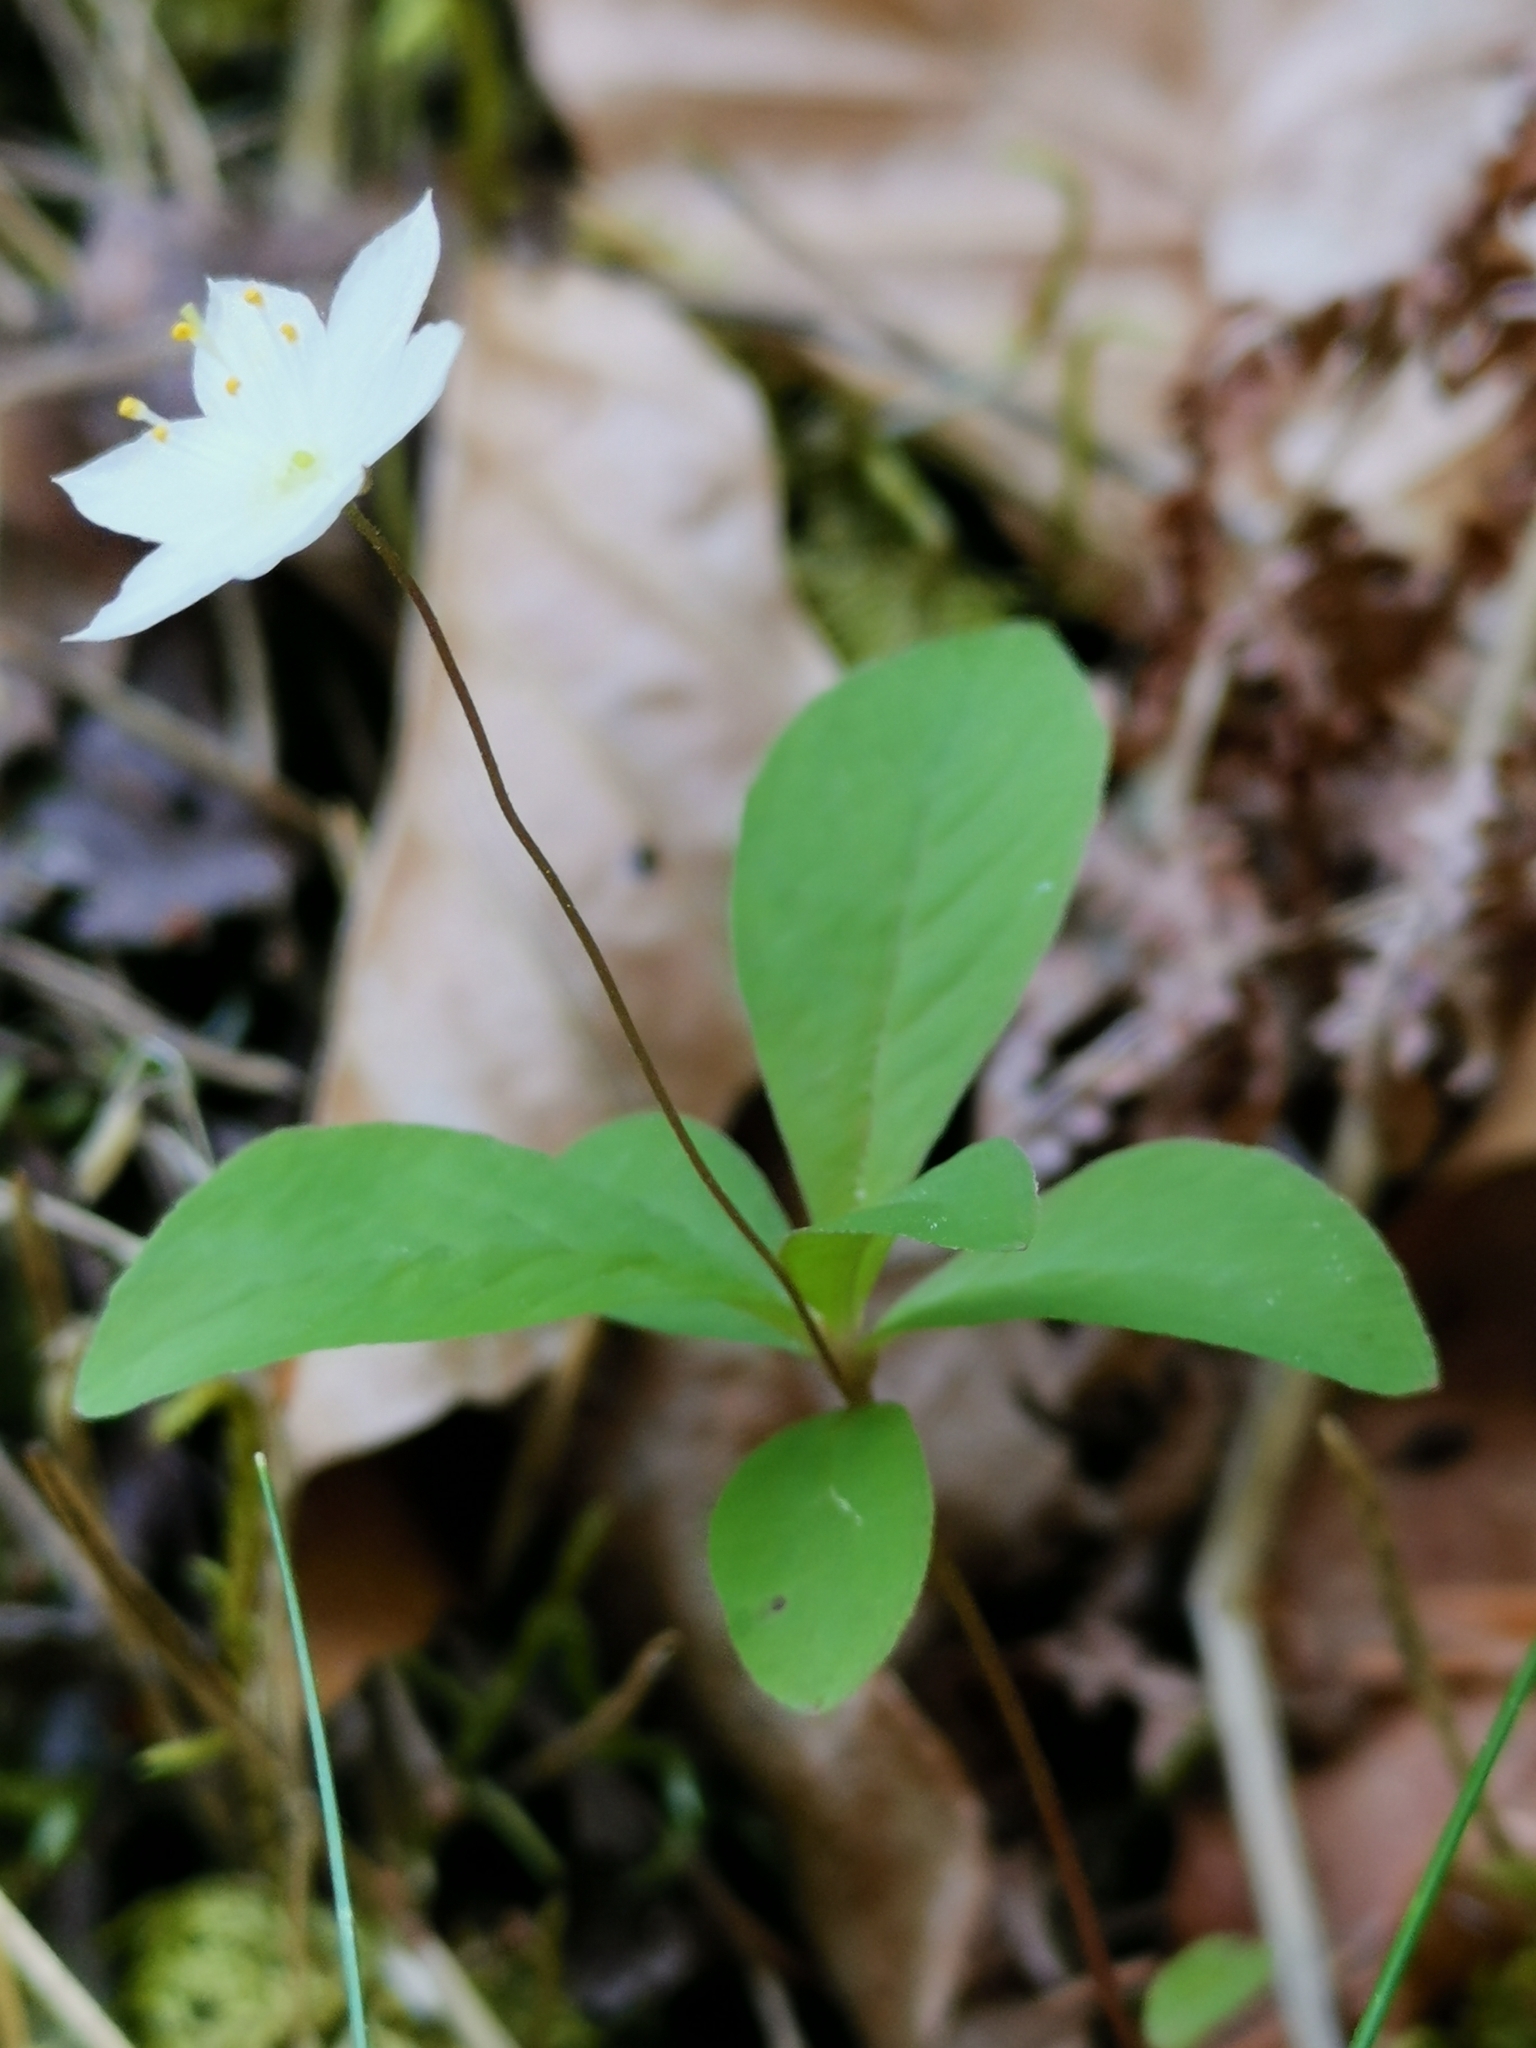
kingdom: Plantae
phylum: Tracheophyta
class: Magnoliopsida
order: Ericales
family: Primulaceae
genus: Lysimachia
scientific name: Lysimachia europaea
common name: Arctic starflower
